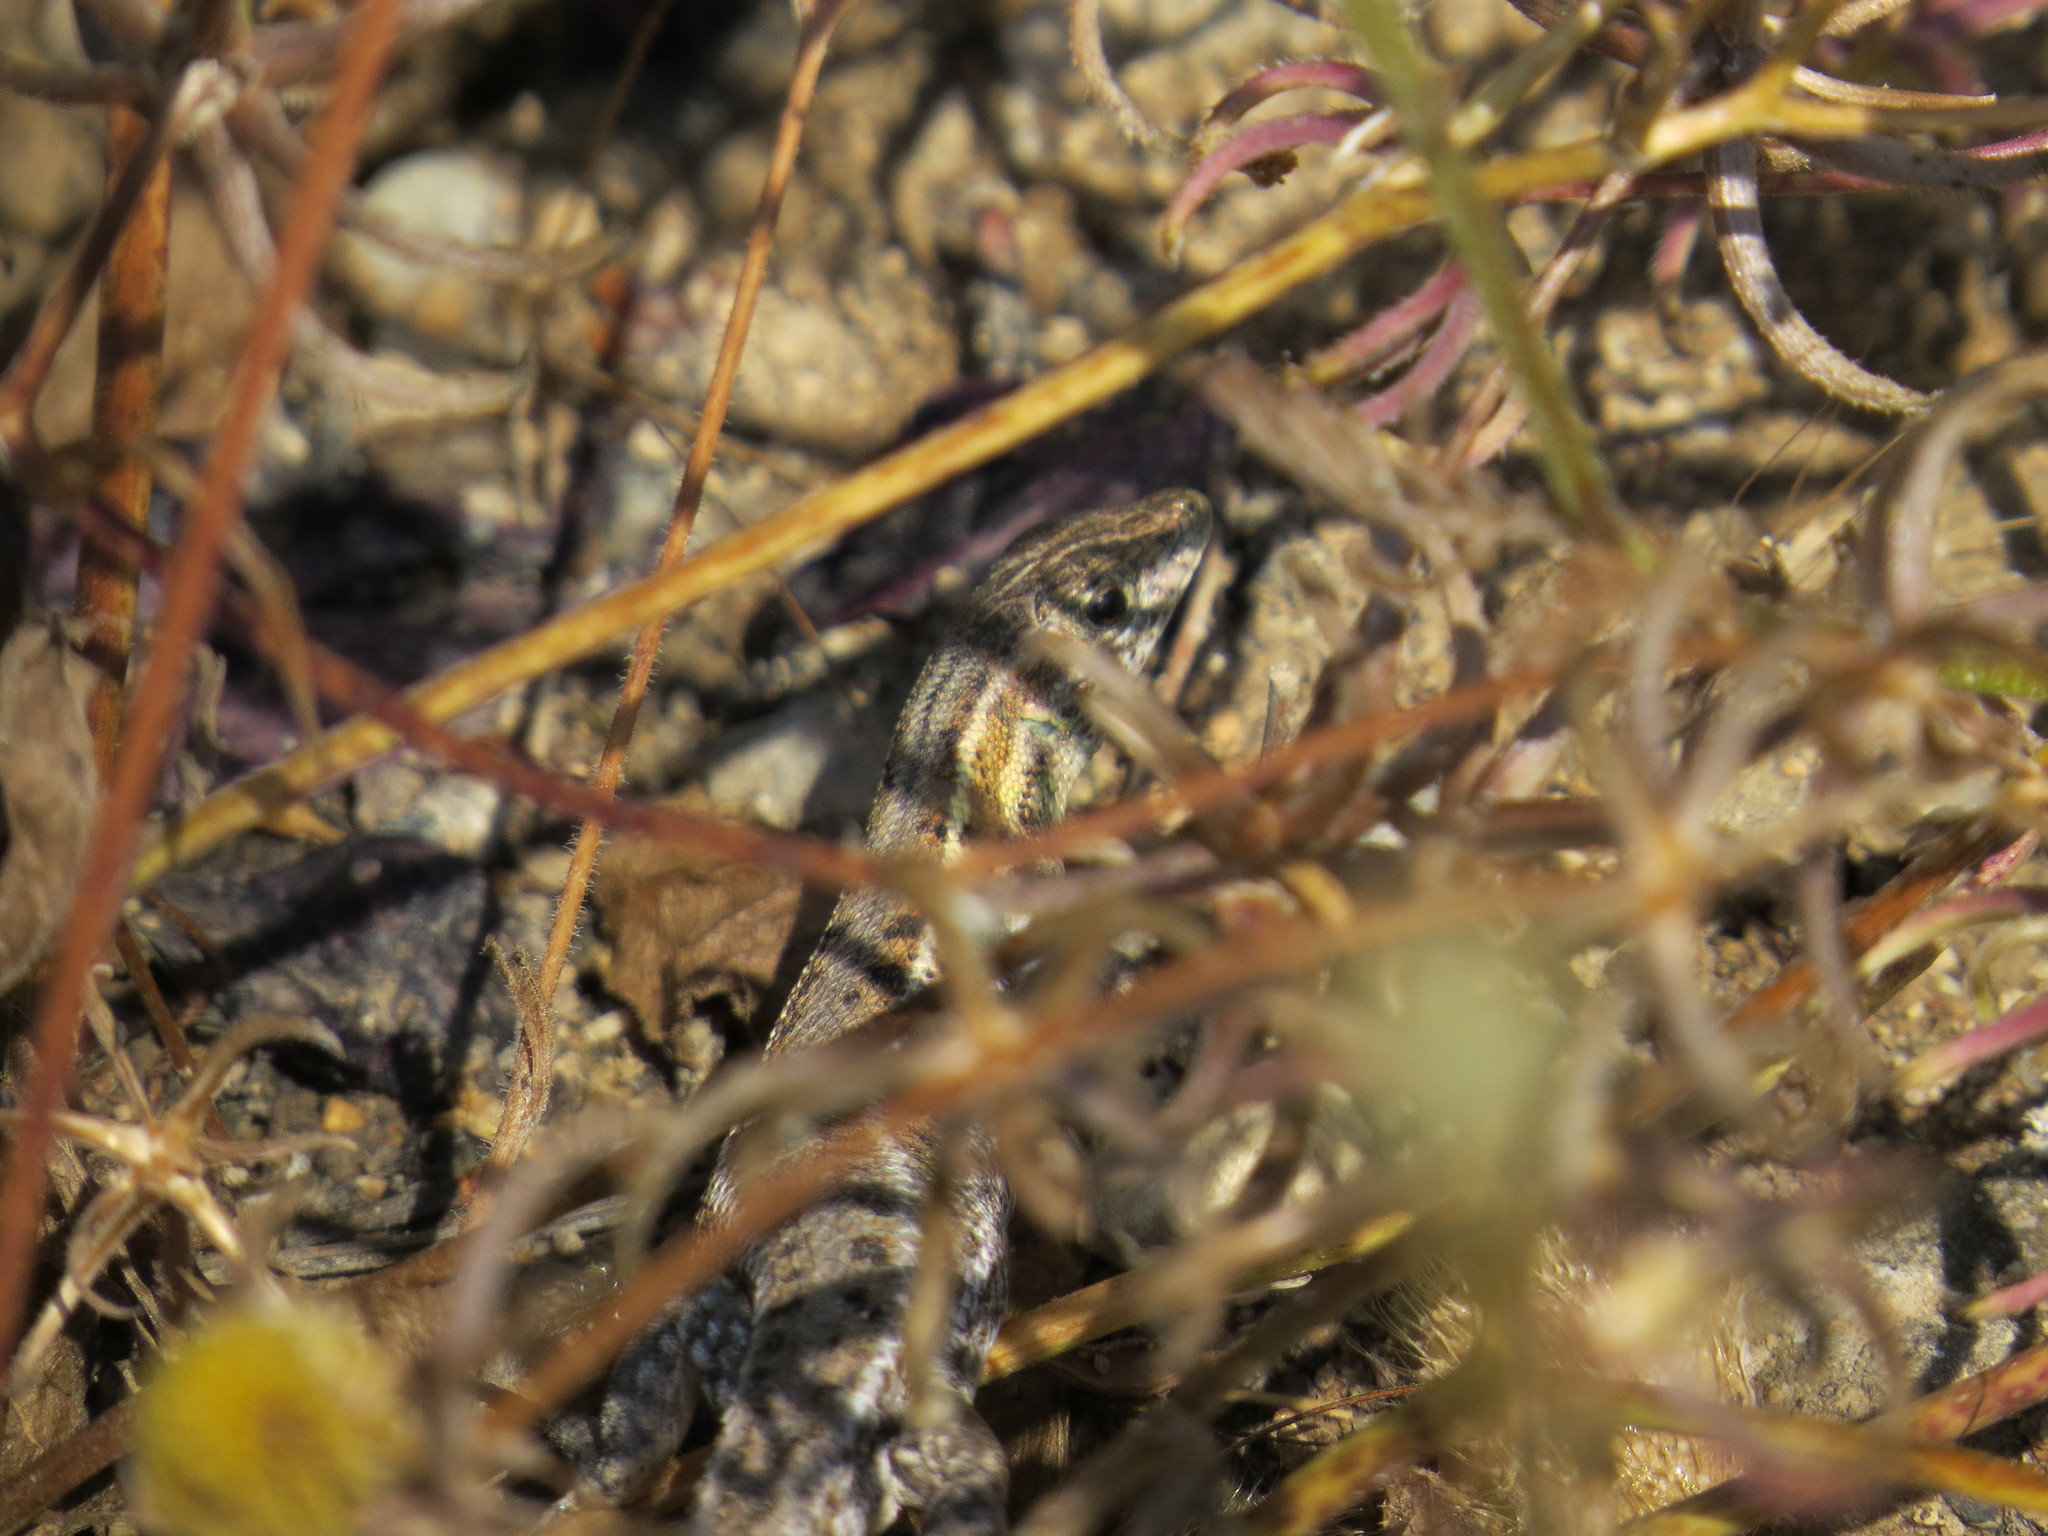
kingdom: Animalia
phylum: Chordata
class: Squamata
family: Lacertidae
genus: Ophisops
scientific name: Ophisops elegans
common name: Snake-eyed lizard
